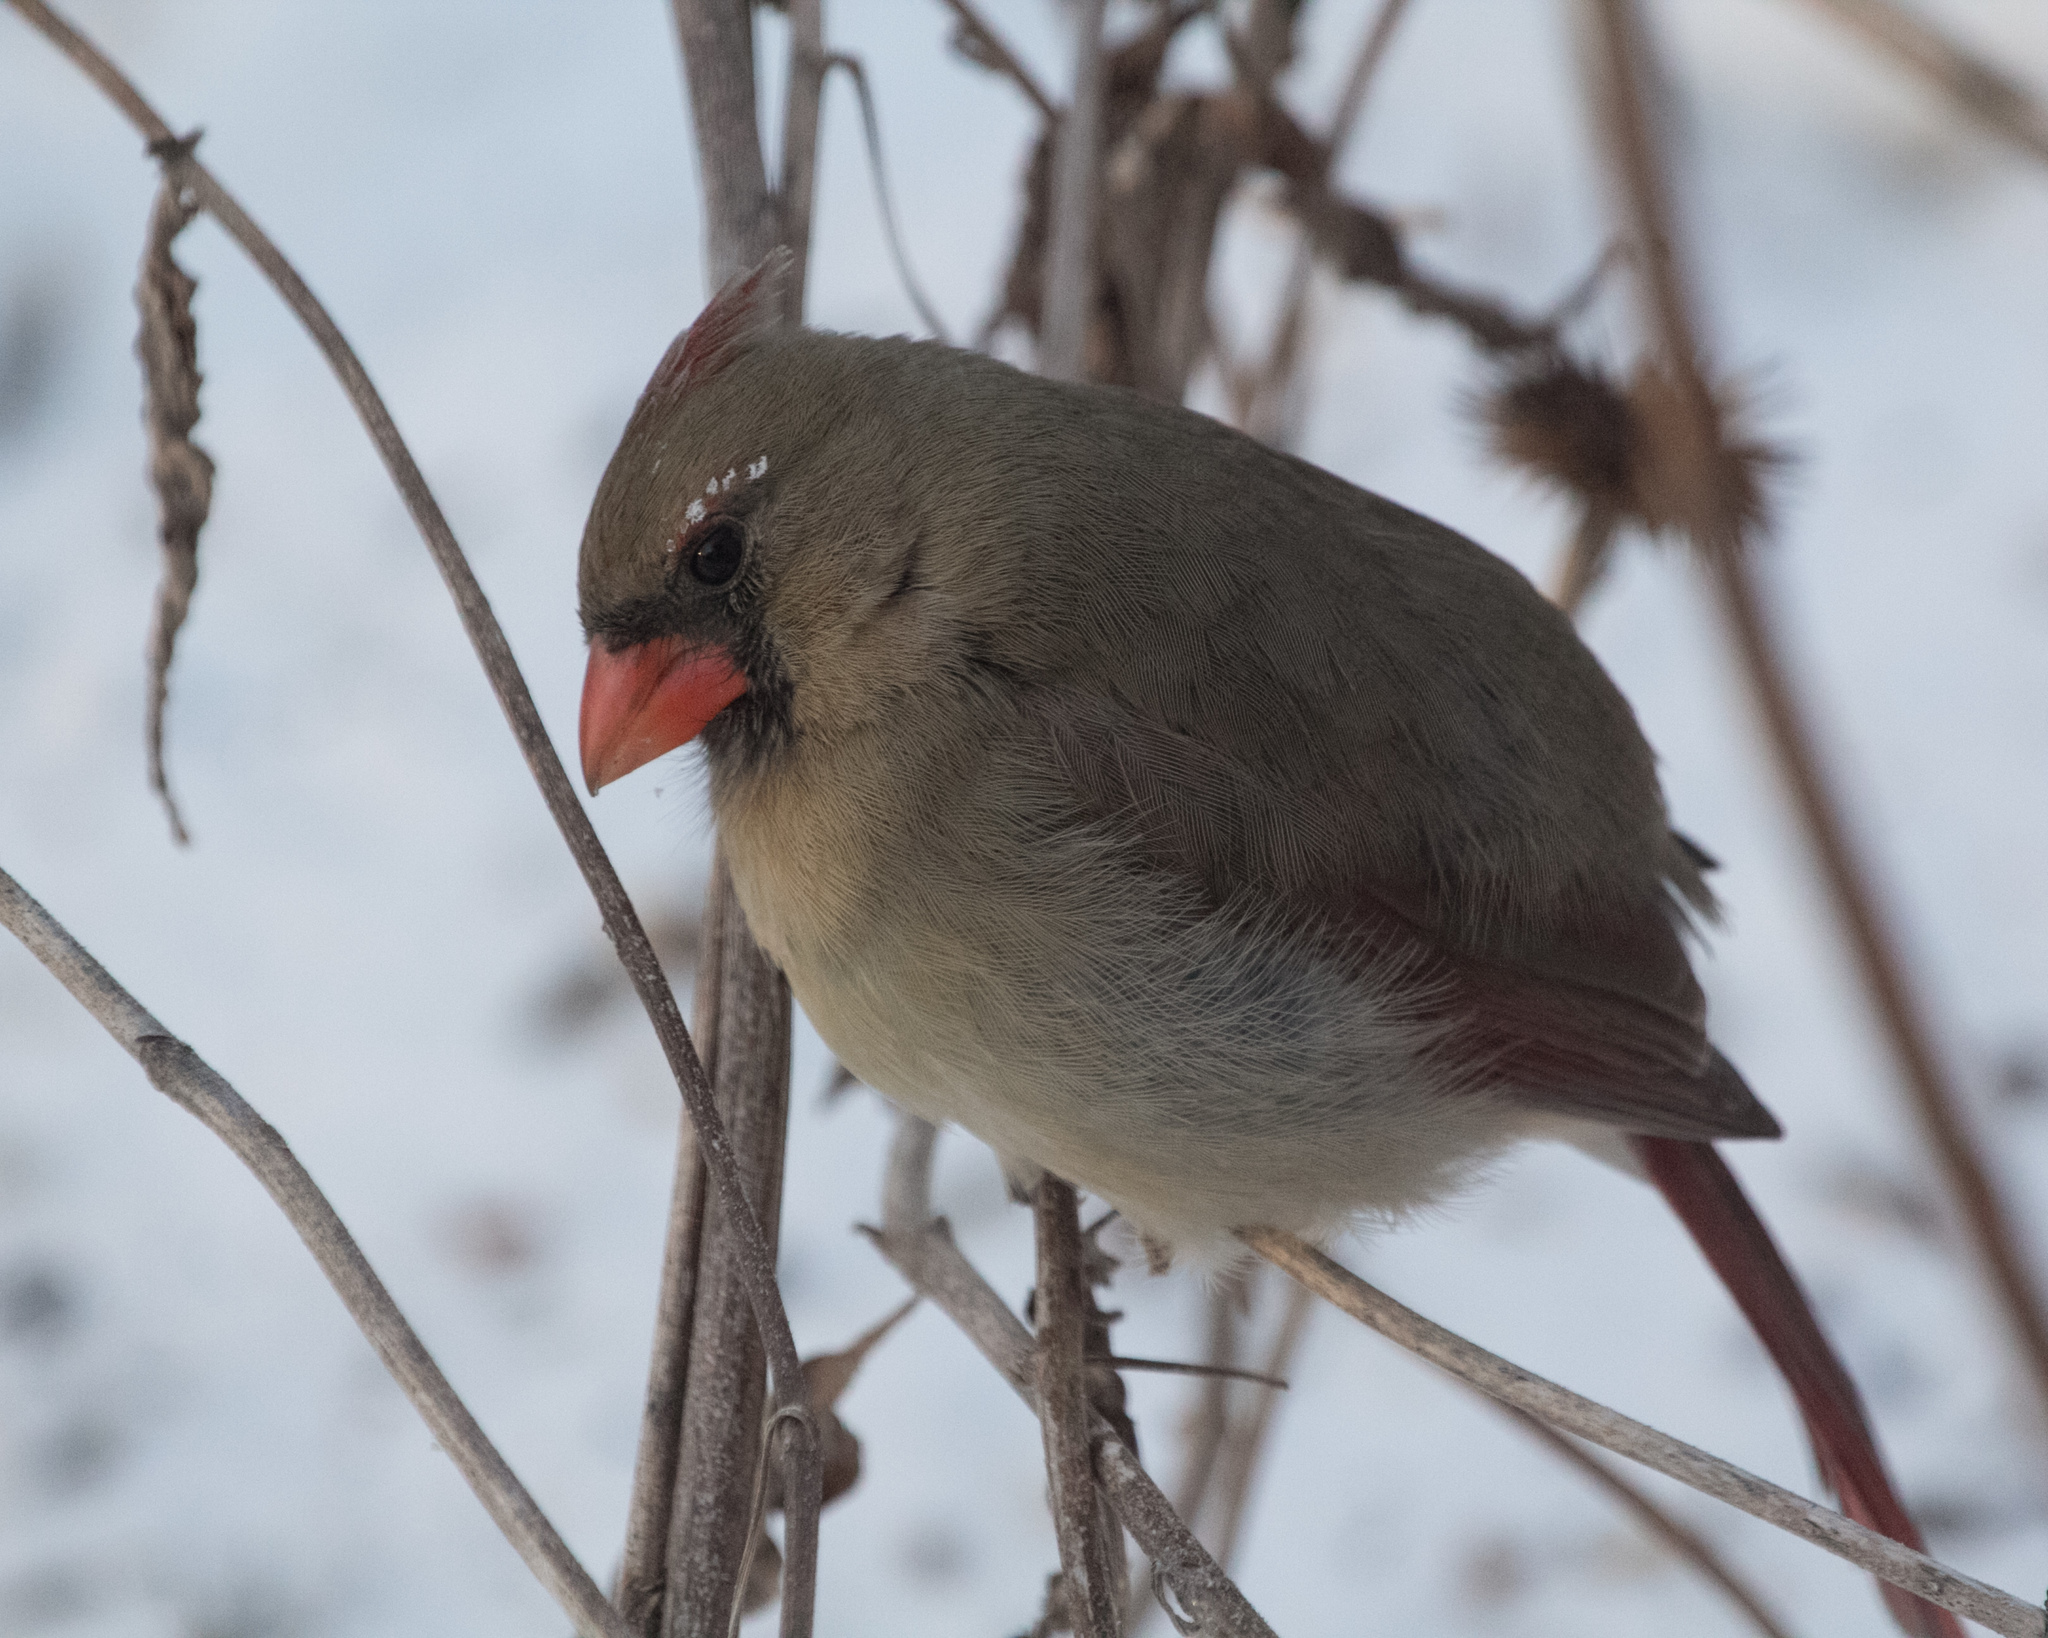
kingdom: Animalia
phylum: Chordata
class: Aves
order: Passeriformes
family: Cardinalidae
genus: Cardinalis
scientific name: Cardinalis cardinalis
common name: Northern cardinal
